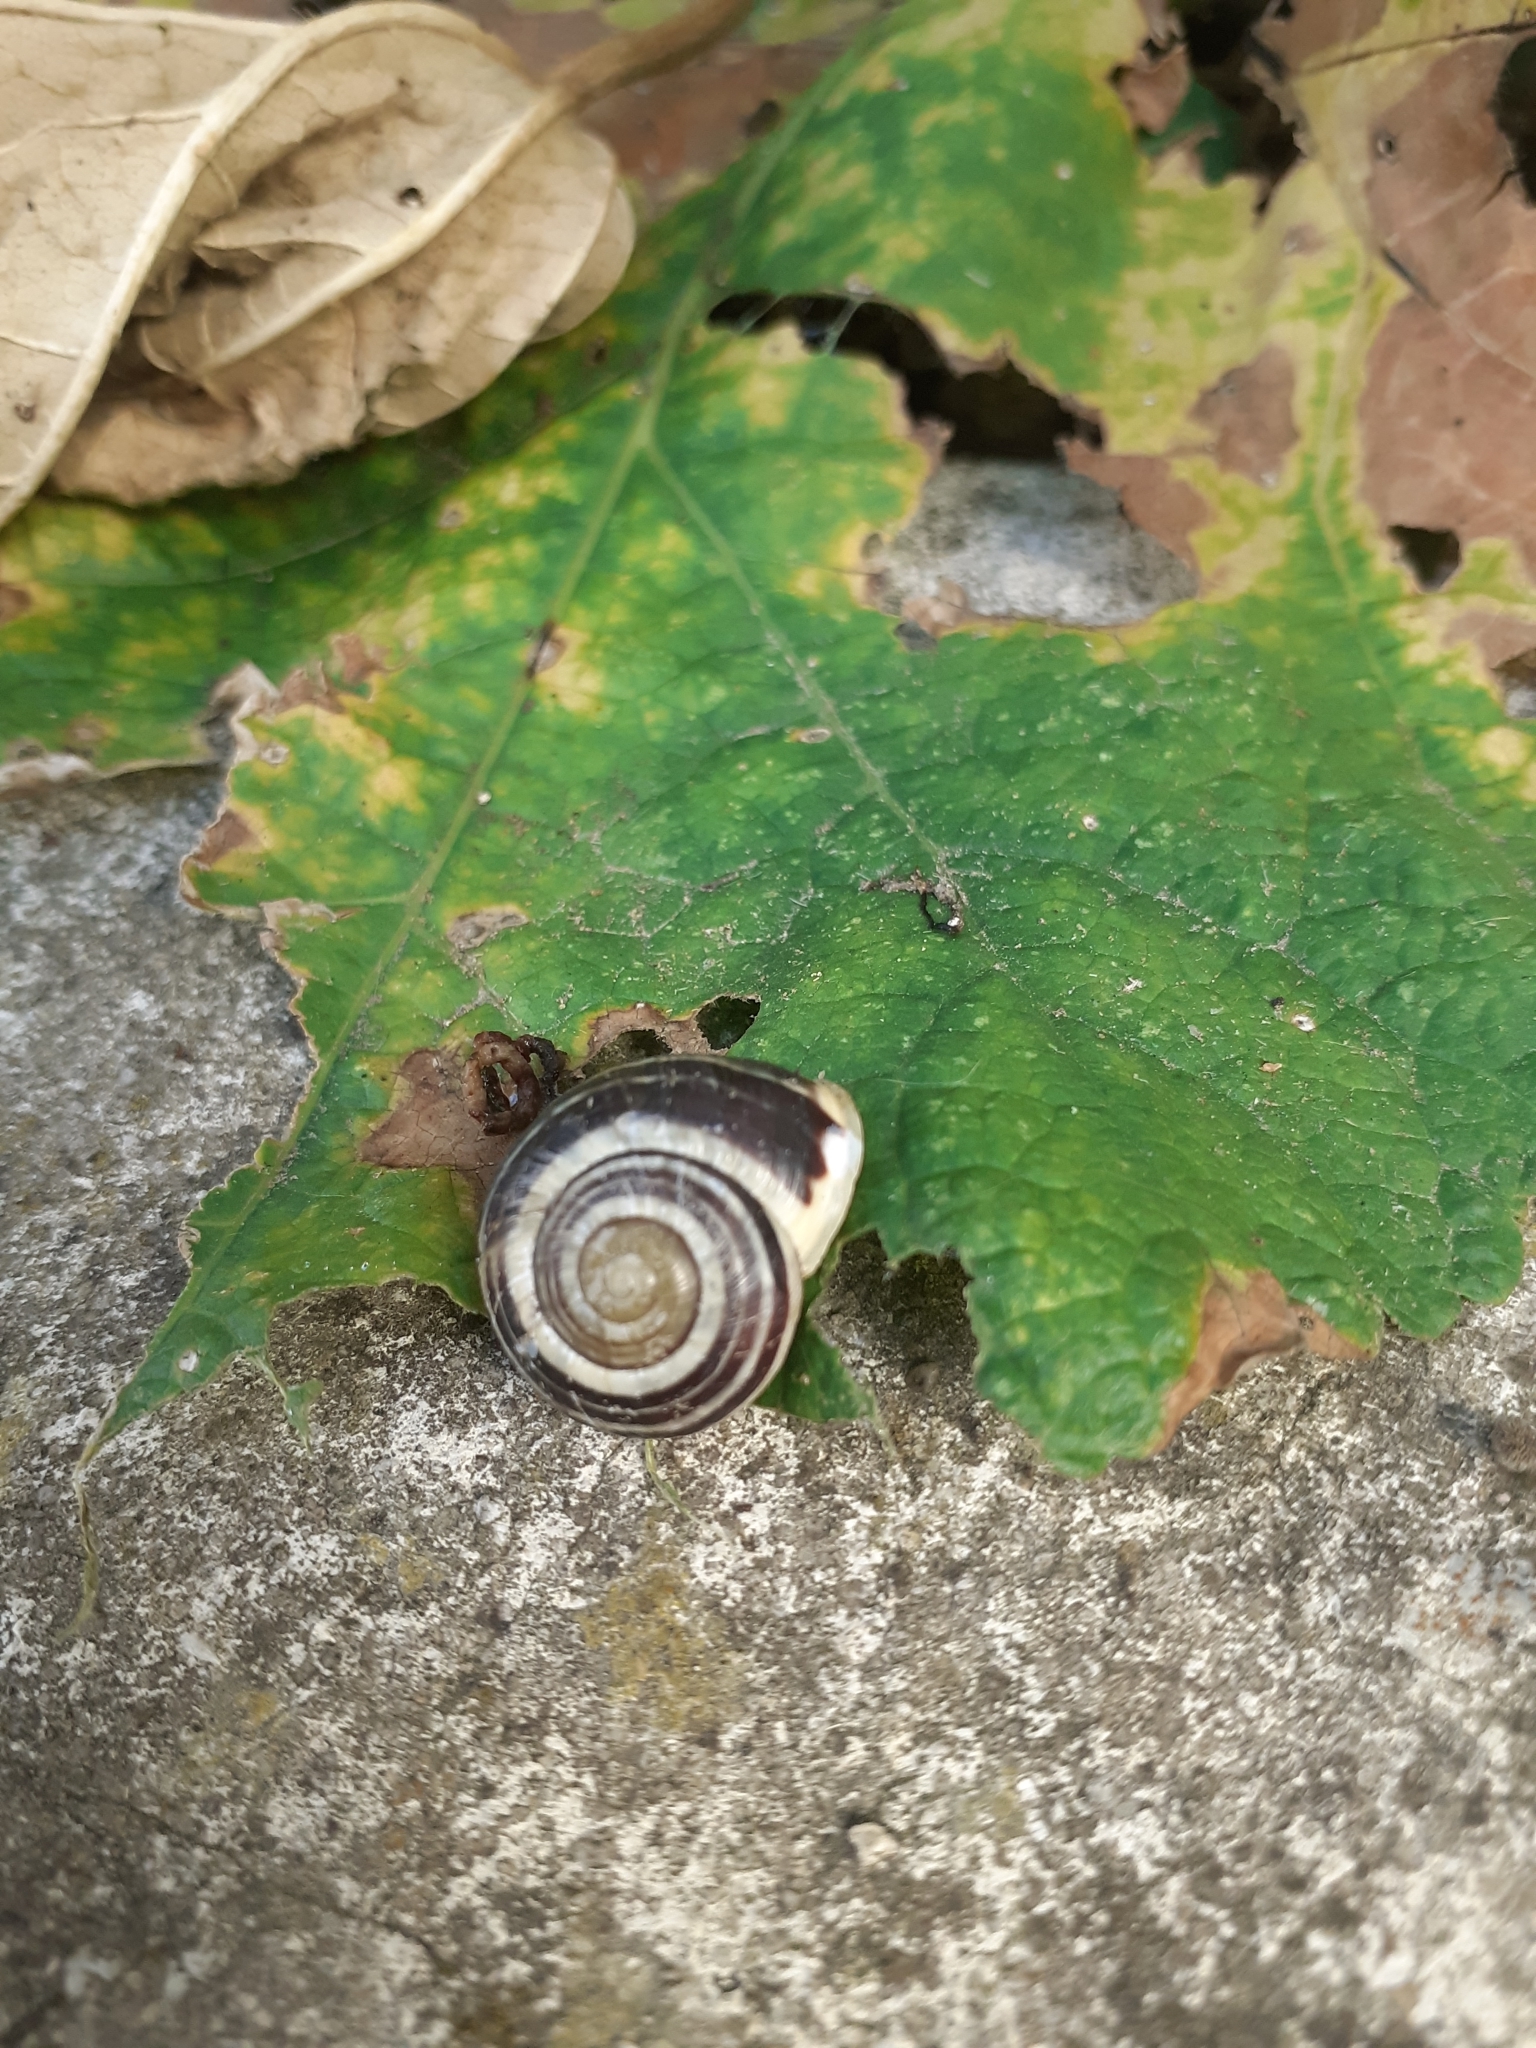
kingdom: Animalia
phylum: Mollusca
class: Gastropoda
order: Stylommatophora
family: Helicidae
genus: Cepaea
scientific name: Cepaea hortensis
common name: White-lip gardensnail
